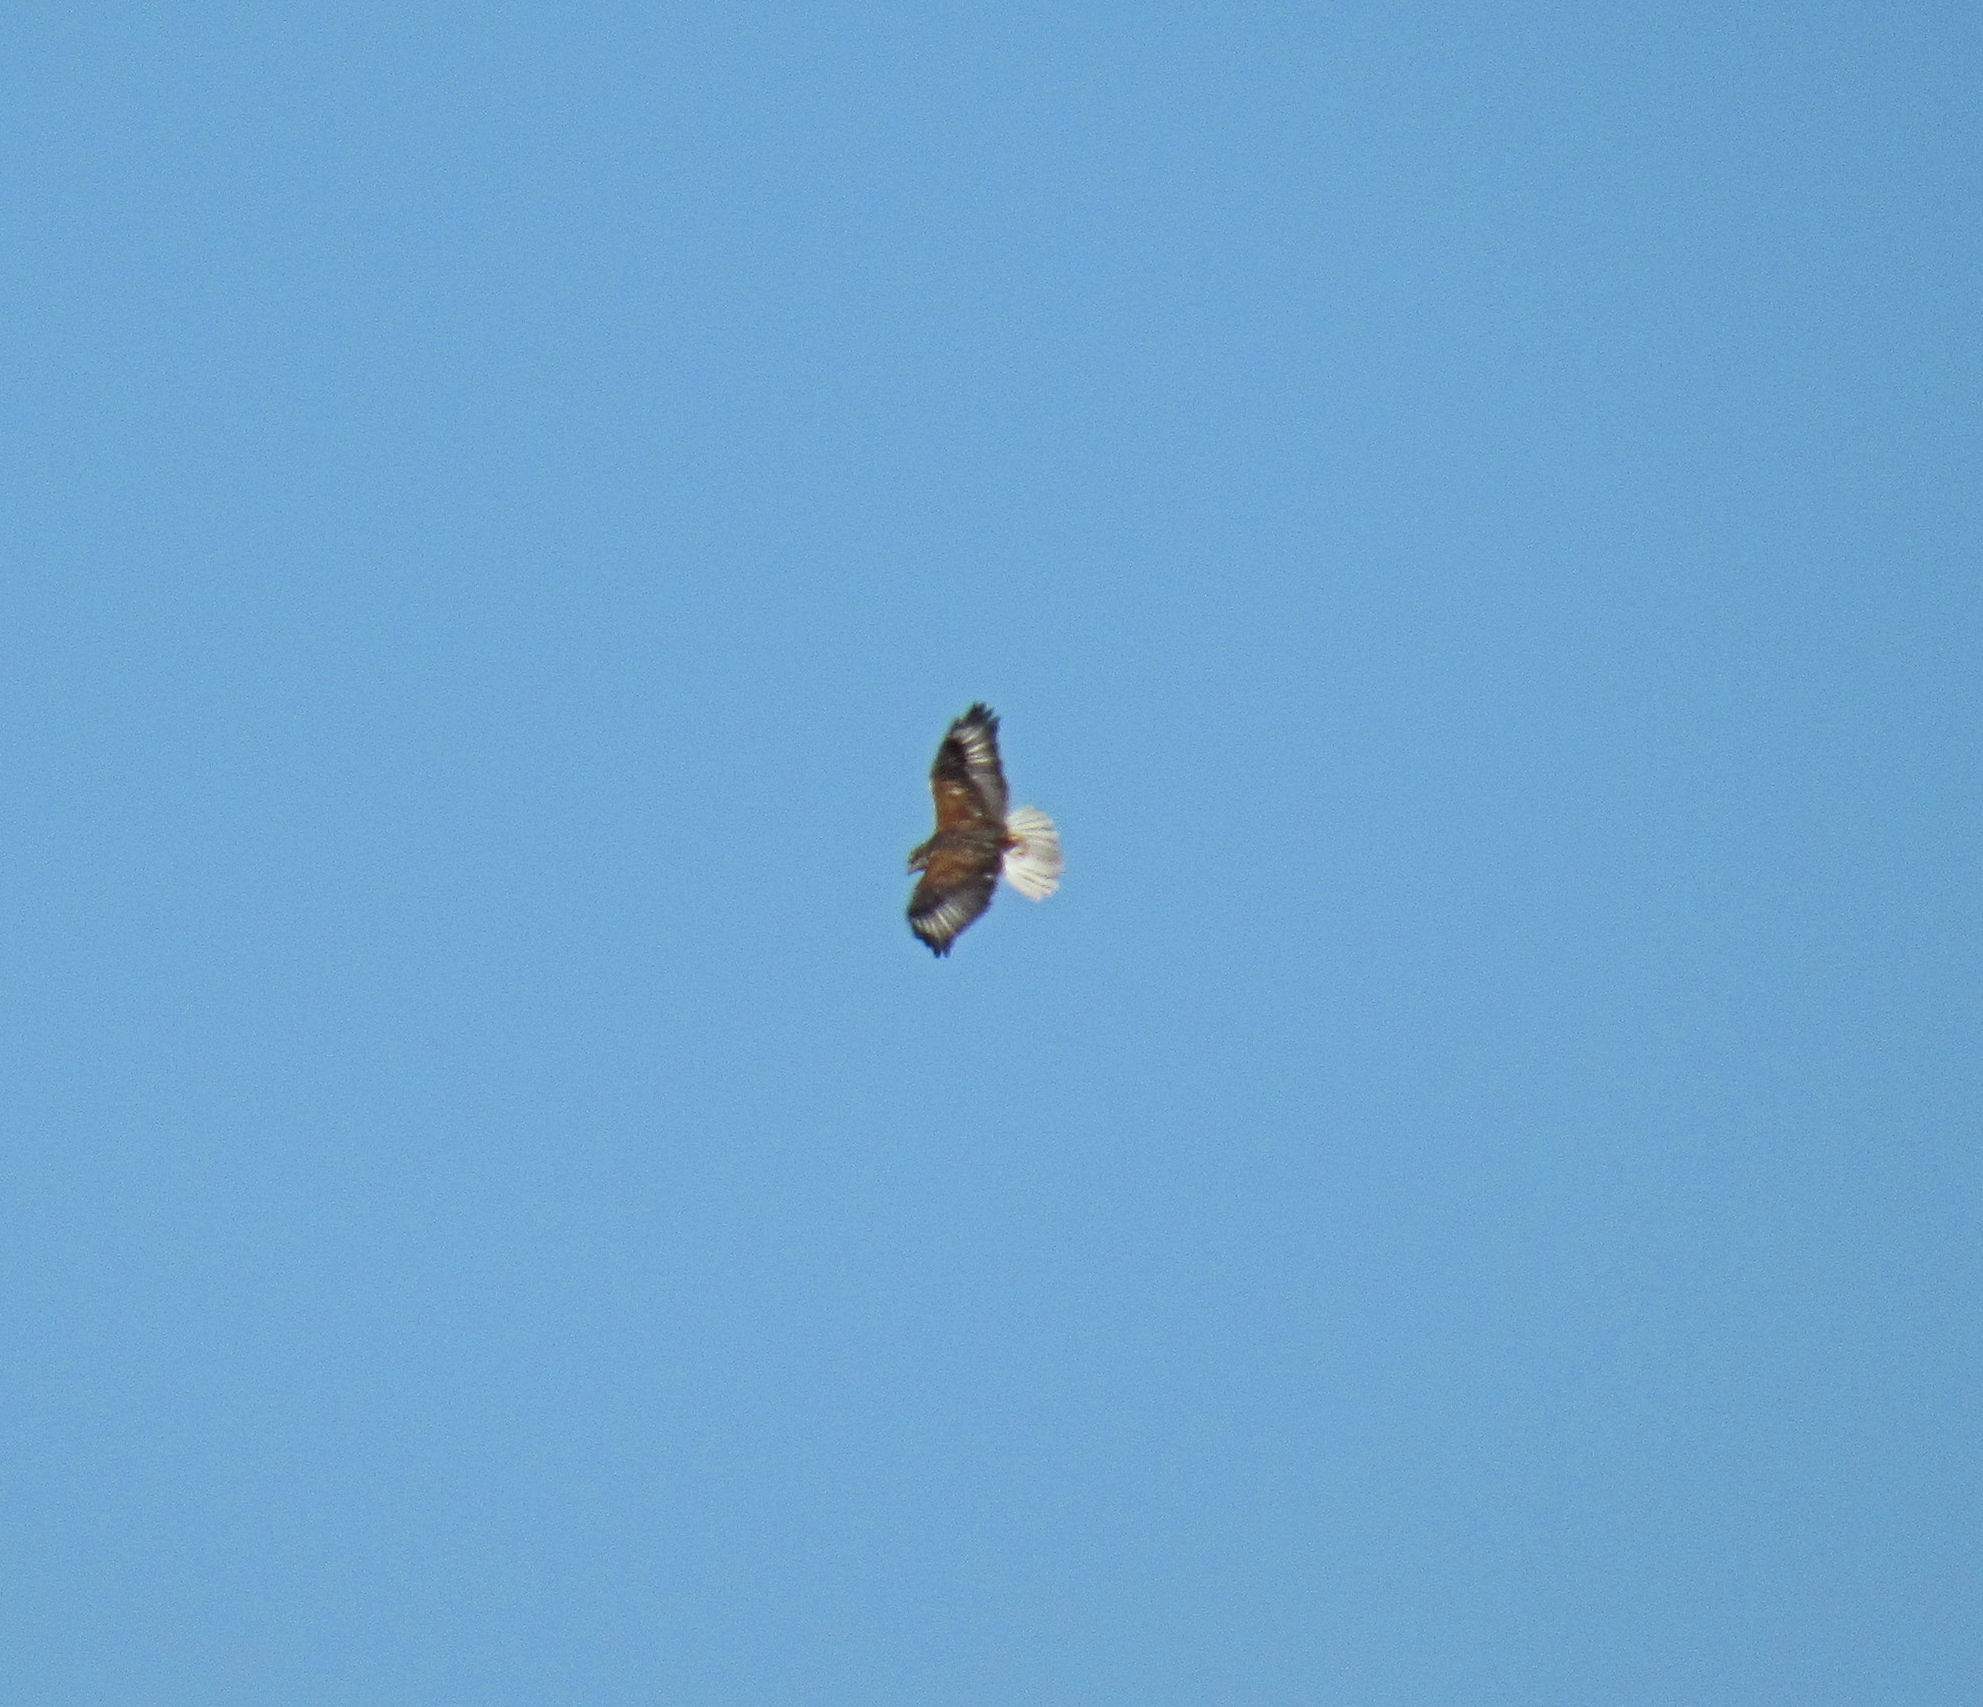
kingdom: Animalia
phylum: Chordata
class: Aves
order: Accipitriformes
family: Accipitridae
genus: Buteo
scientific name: Buteo regalis
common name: Ferruginous hawk
